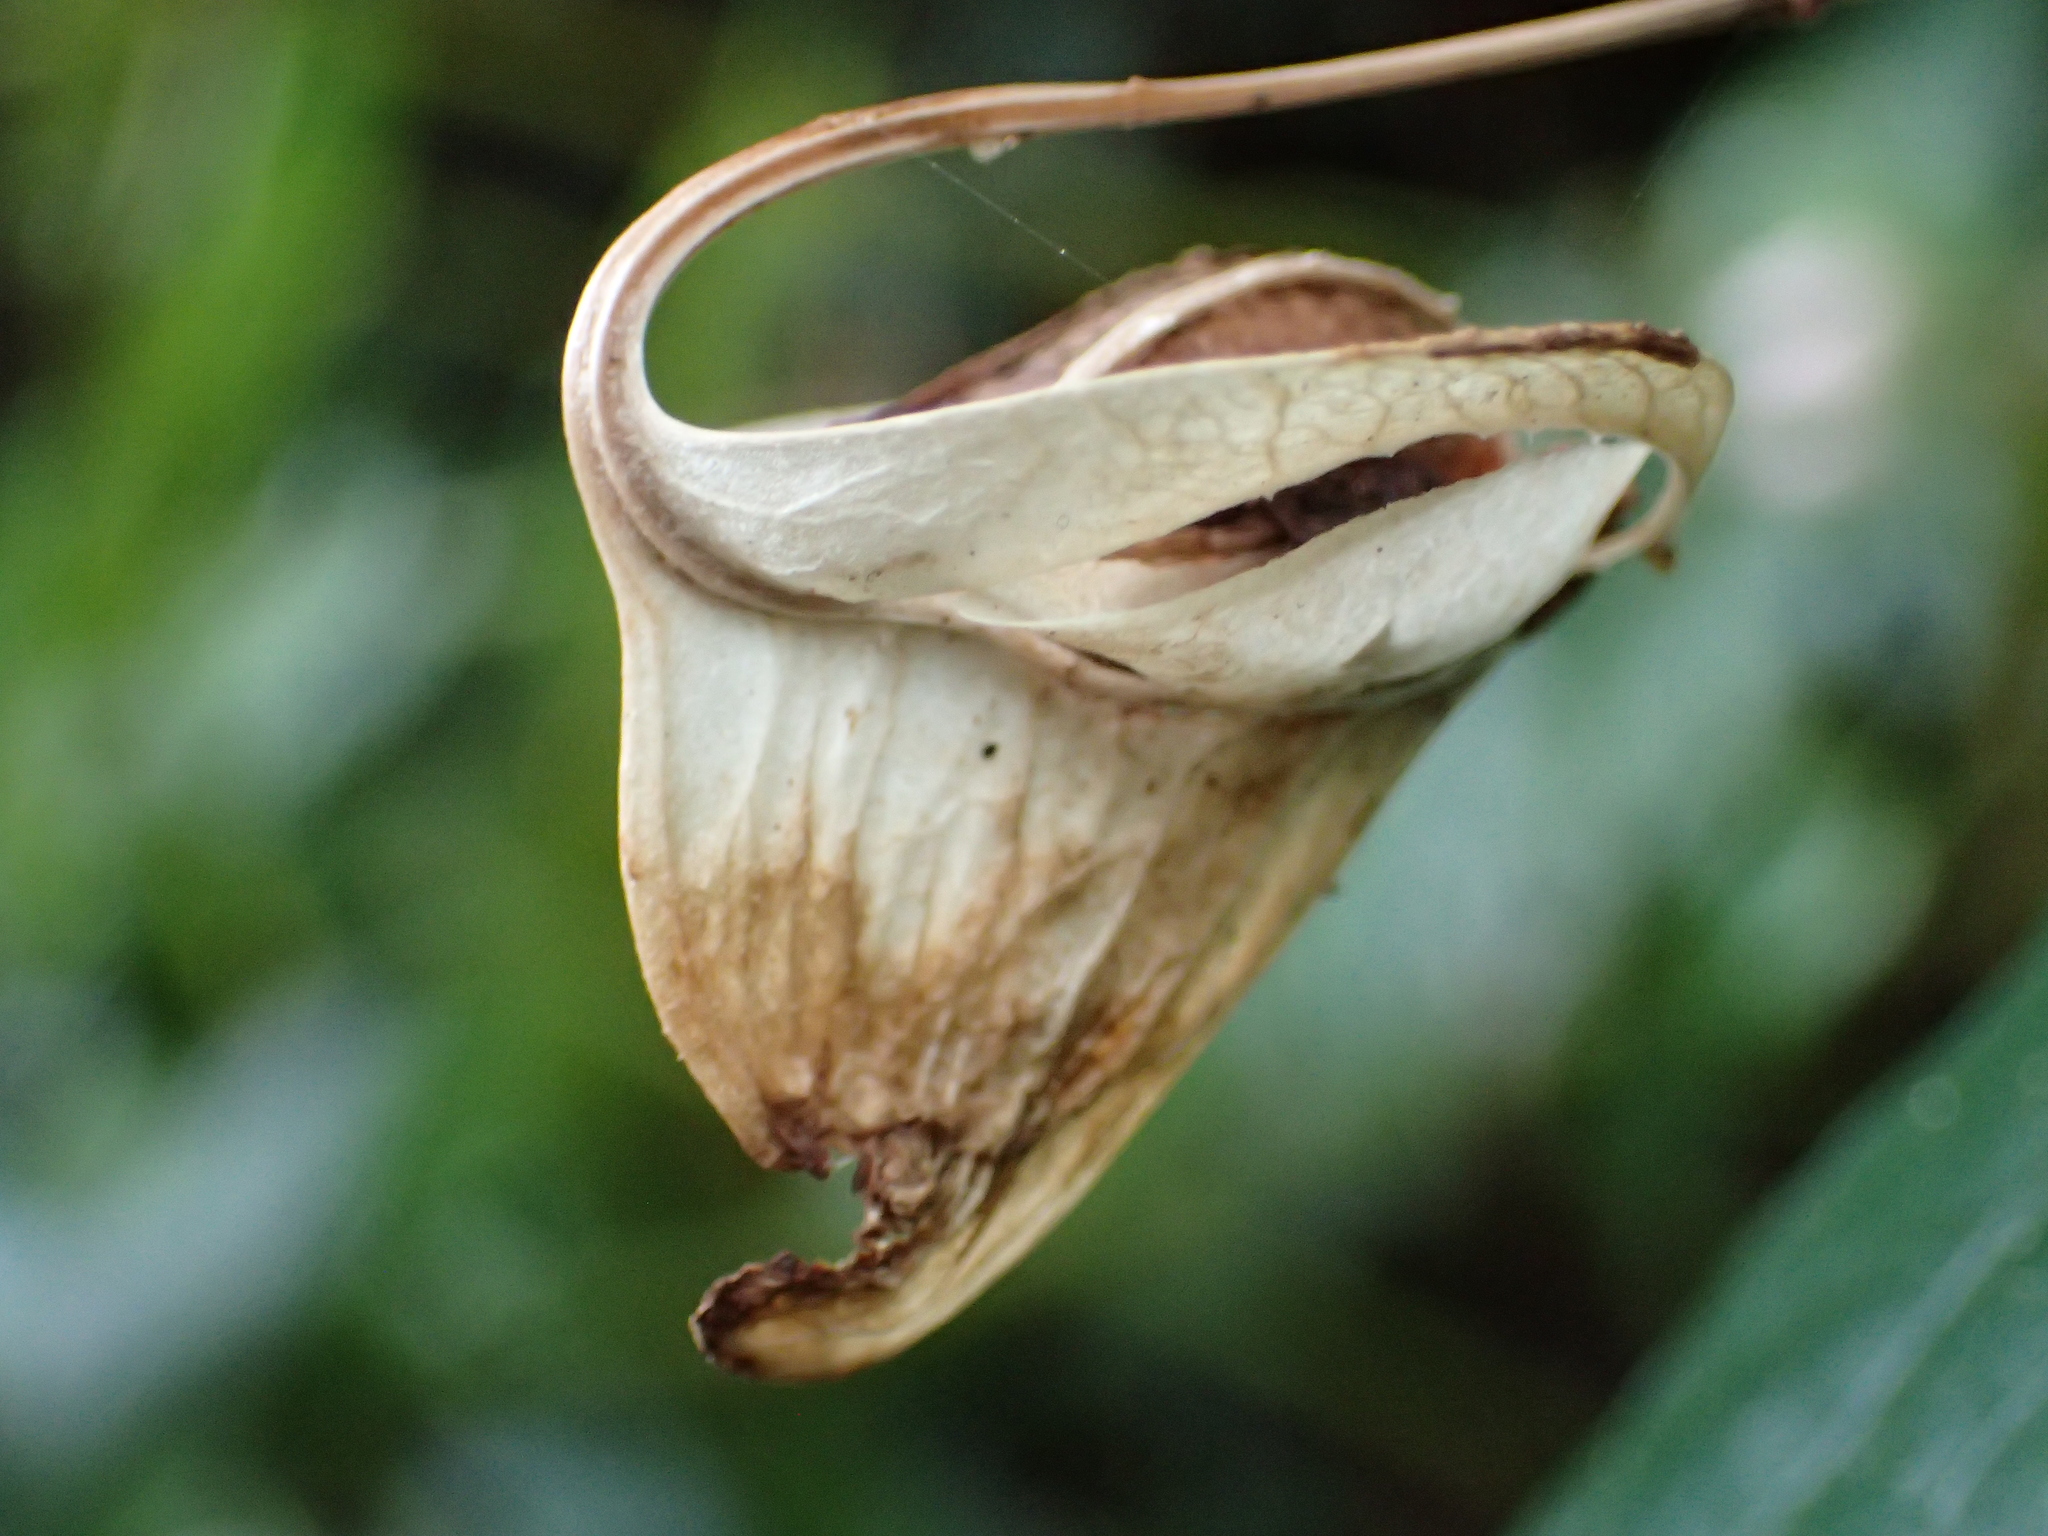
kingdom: Plantae
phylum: Tracheophyta
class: Magnoliopsida
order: Cucurbitales
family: Begoniaceae
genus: Begonia
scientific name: Begonia formosana
